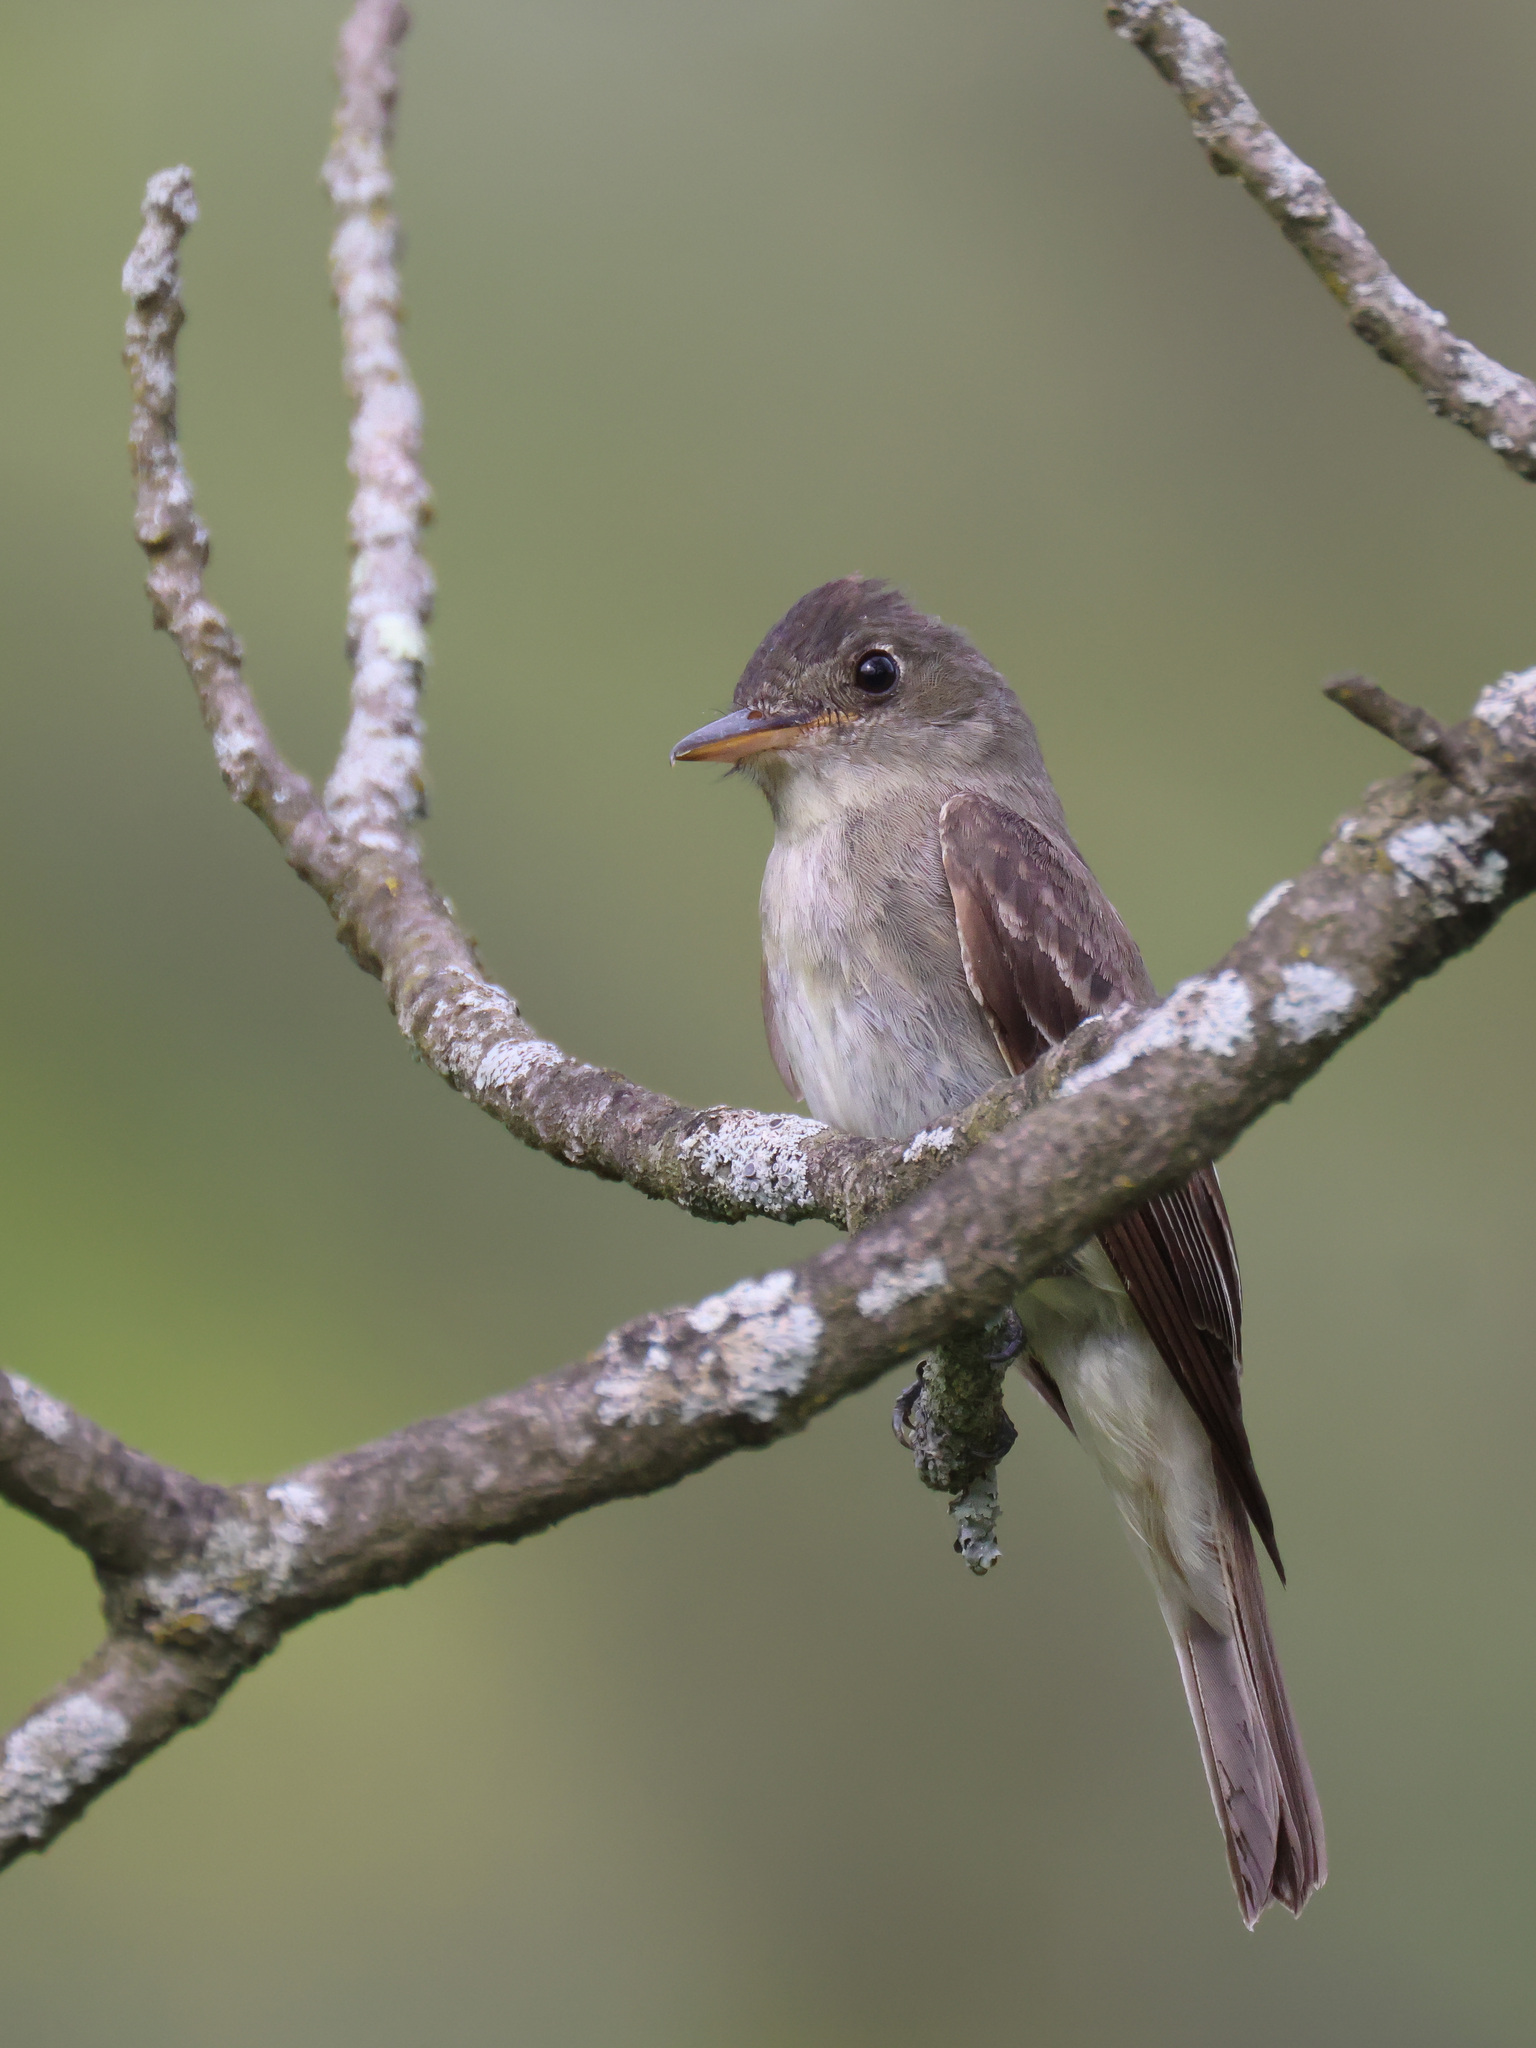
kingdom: Animalia
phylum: Chordata
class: Aves
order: Passeriformes
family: Tyrannidae
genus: Contopus
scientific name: Contopus virens
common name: Eastern wood-pewee
